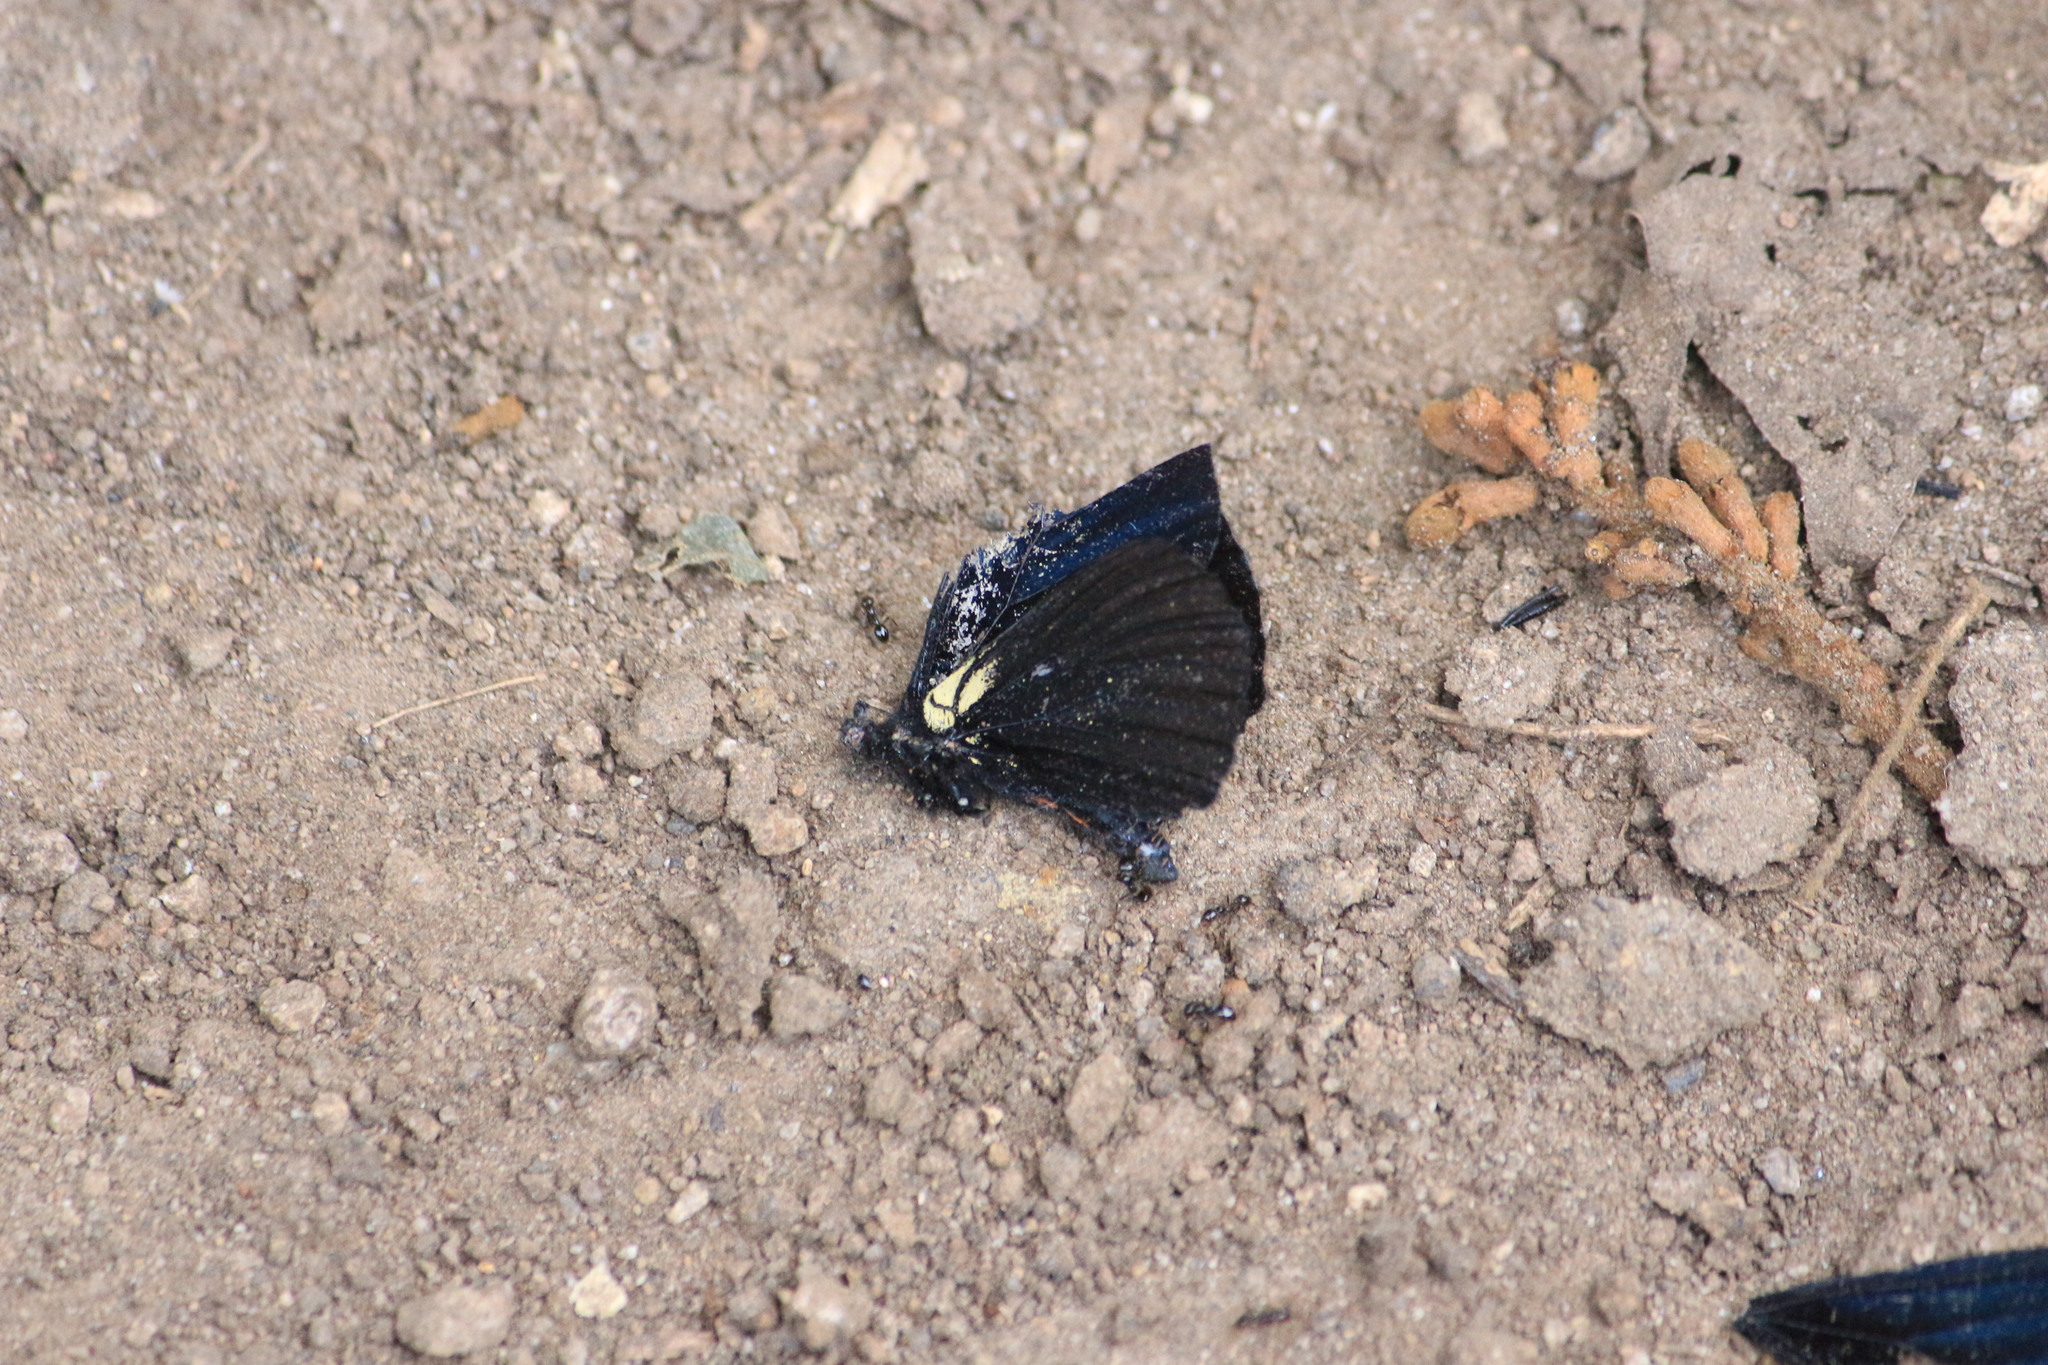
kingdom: Animalia
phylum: Arthropoda
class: Insecta
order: Lepidoptera
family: Nymphalidae
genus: Acraea
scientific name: Acraea Altinote ozomene
